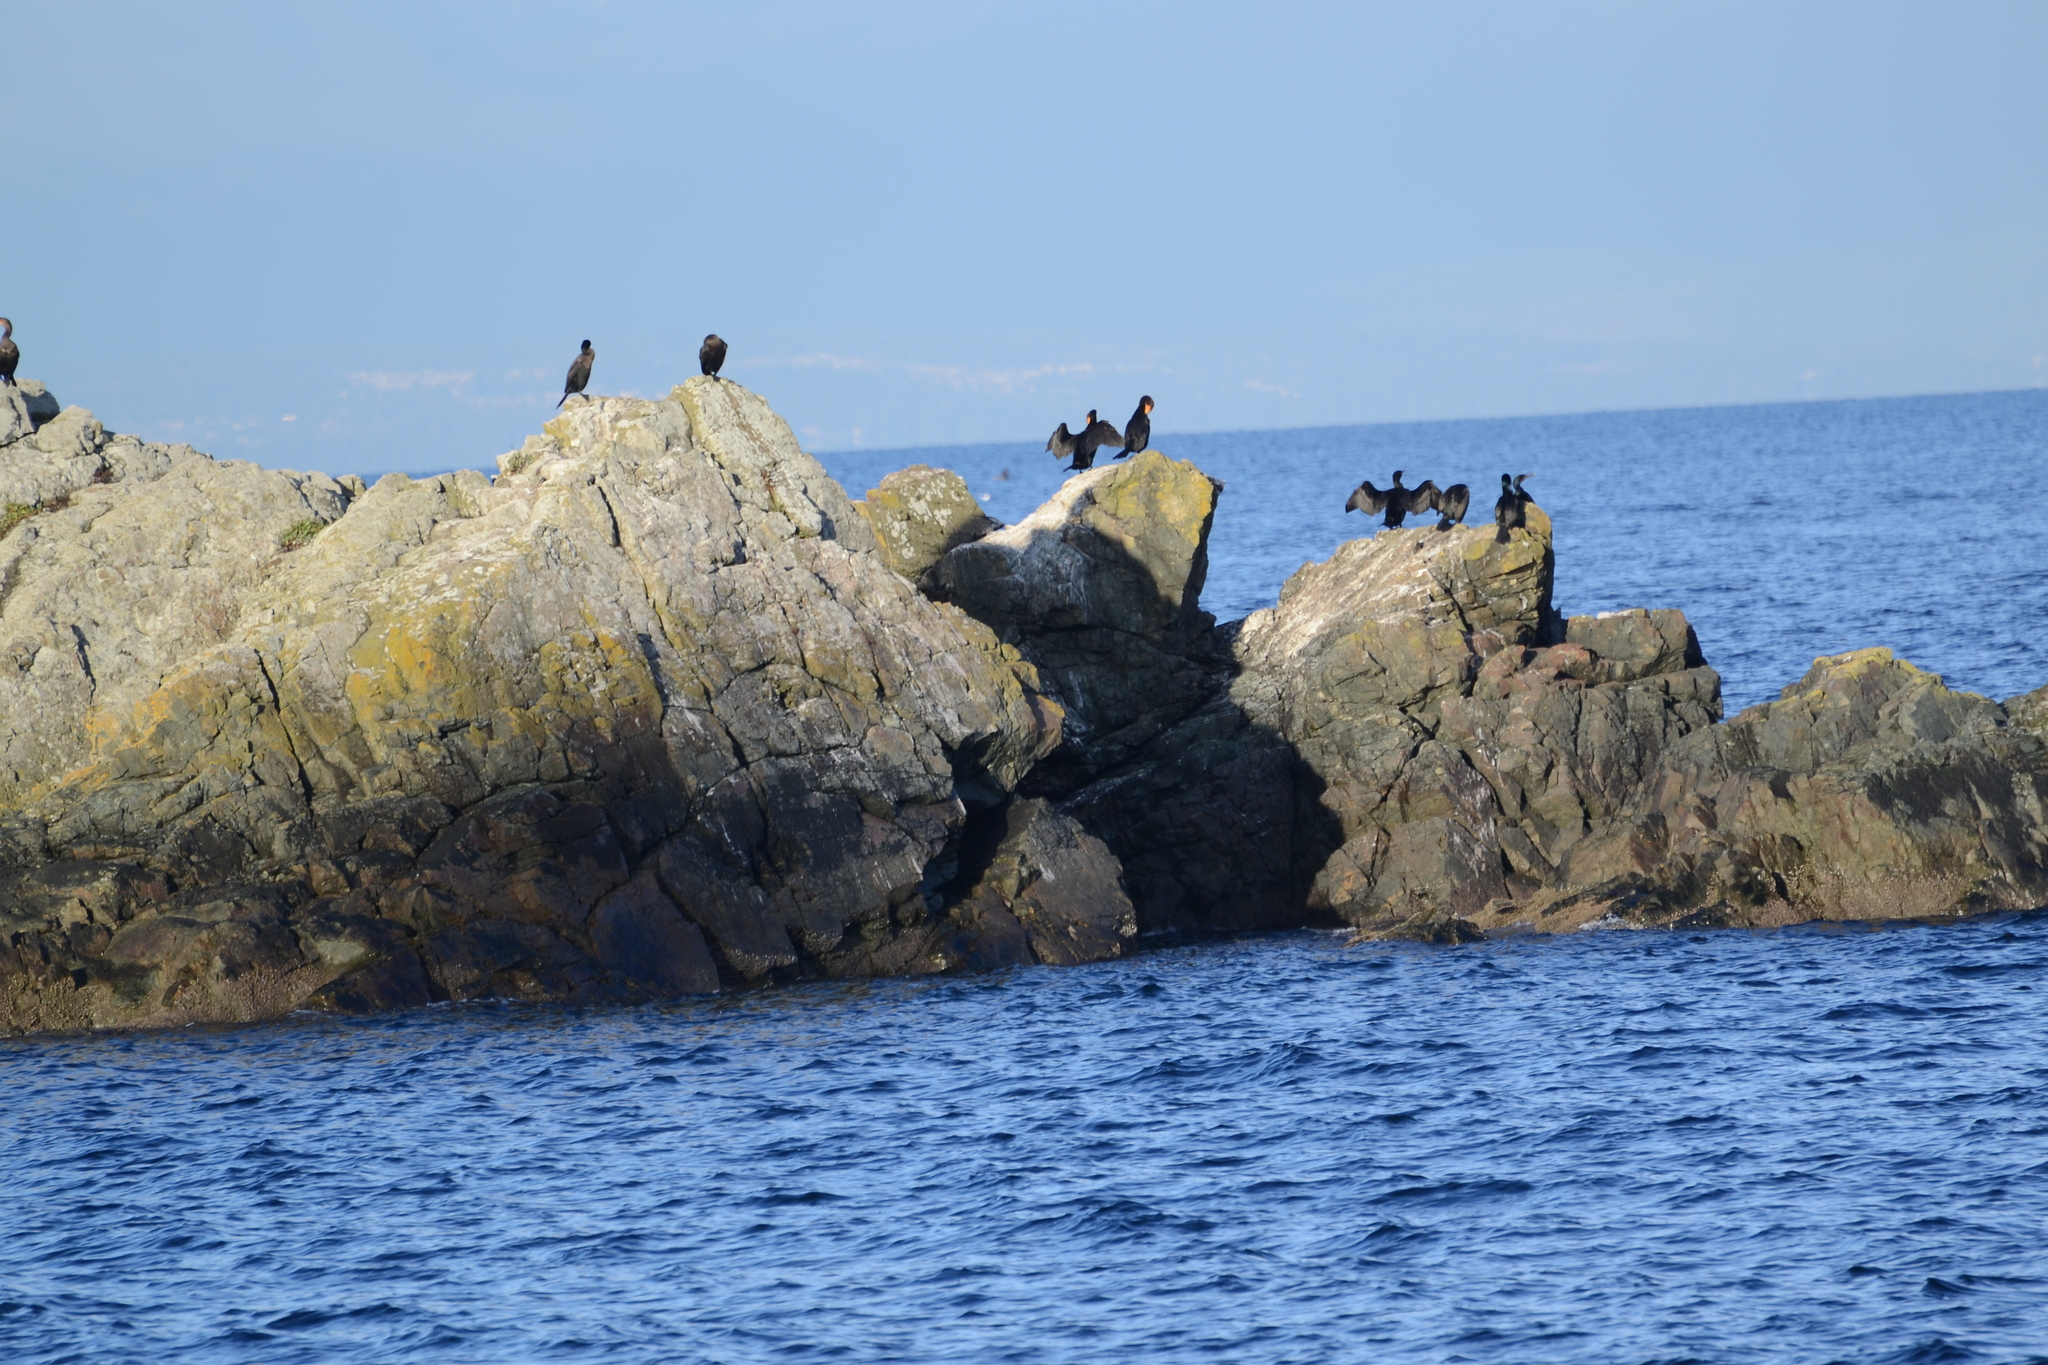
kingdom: Animalia
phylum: Chordata
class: Aves
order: Suliformes
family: Phalacrocoracidae
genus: Phalacrocorax
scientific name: Phalacrocorax auritus
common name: Double-crested cormorant
